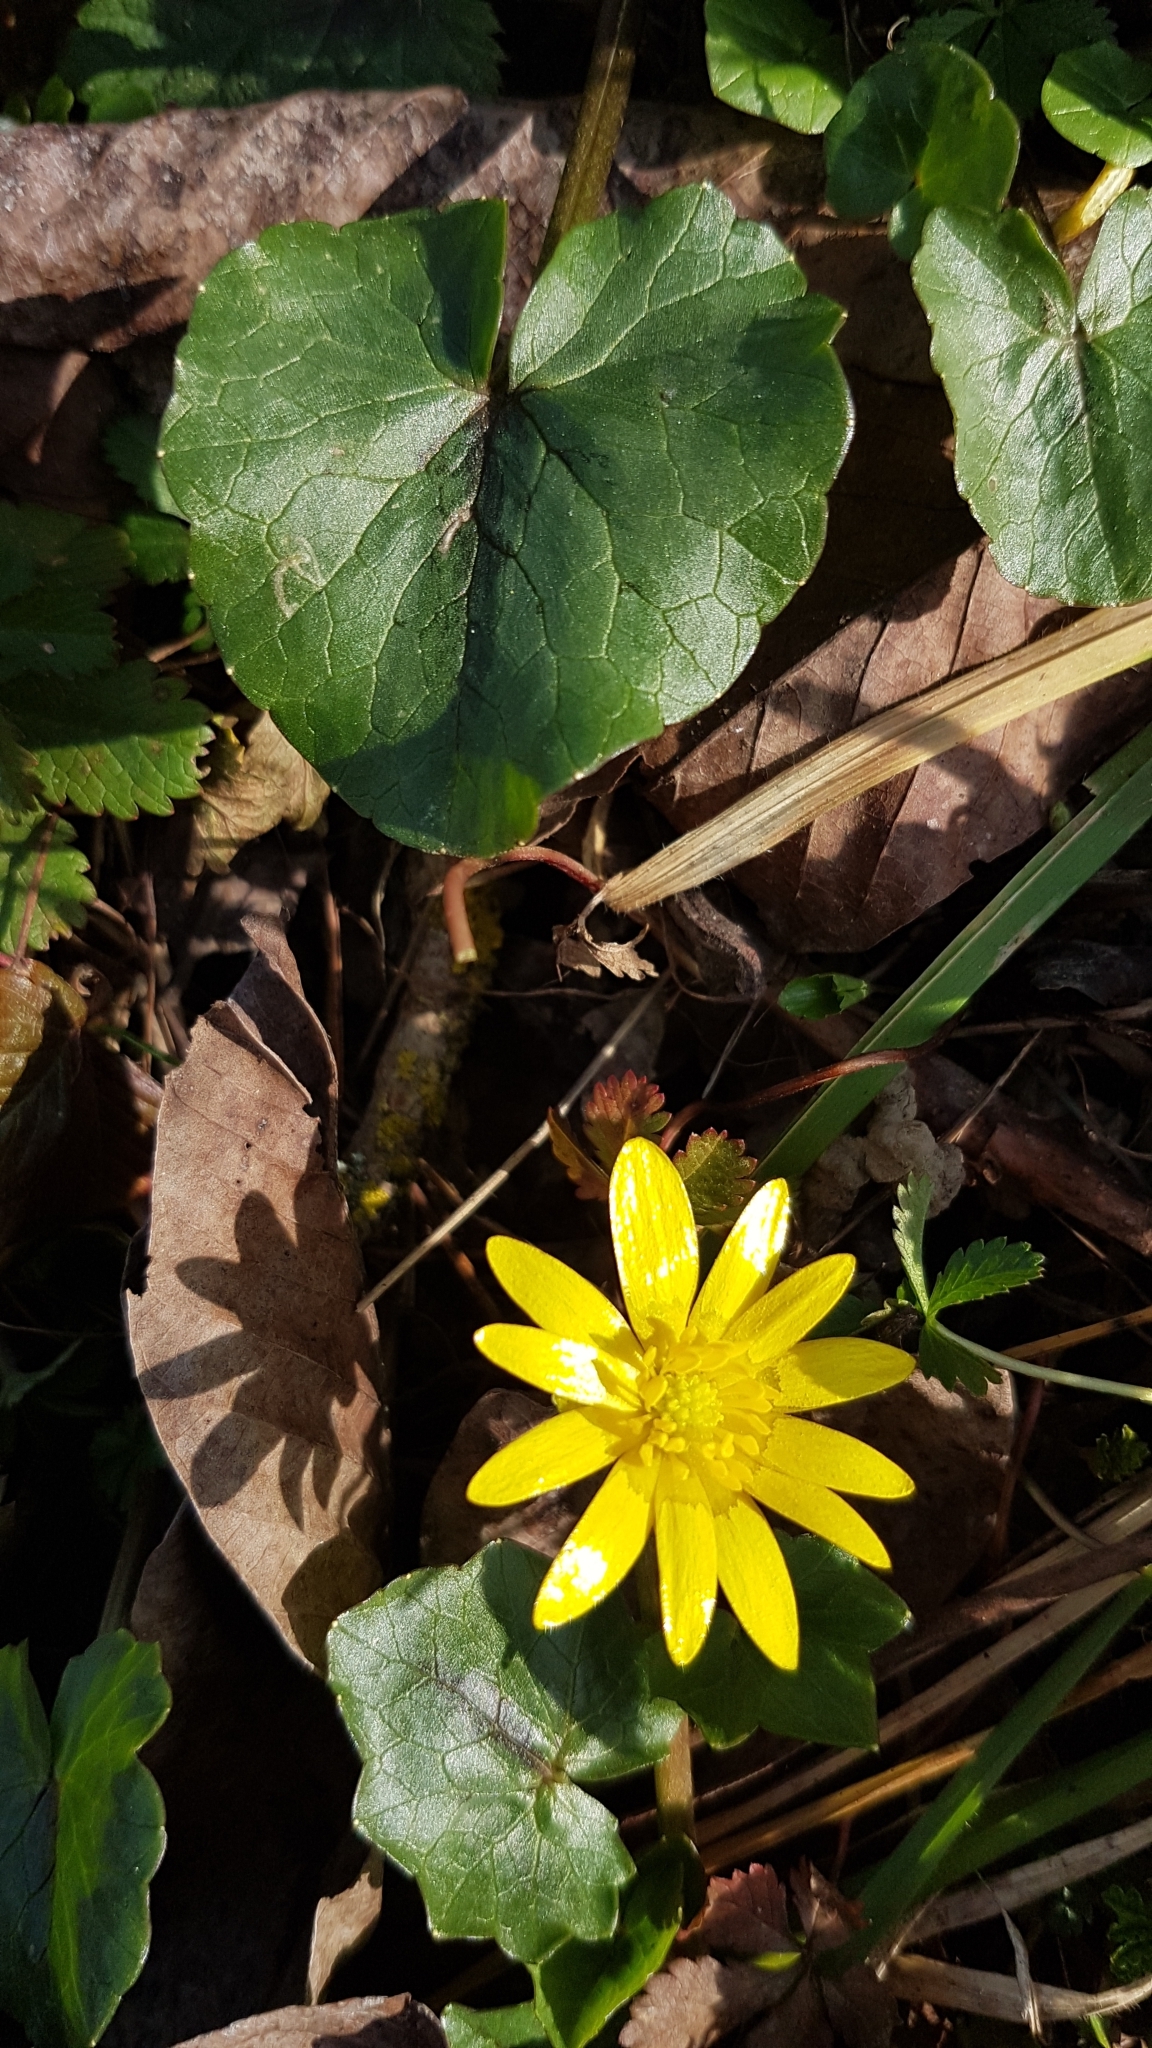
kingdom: Plantae
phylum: Tracheophyta
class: Magnoliopsida
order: Ranunculales
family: Ranunculaceae
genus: Ficaria
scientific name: Ficaria verna
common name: Lesser celandine
